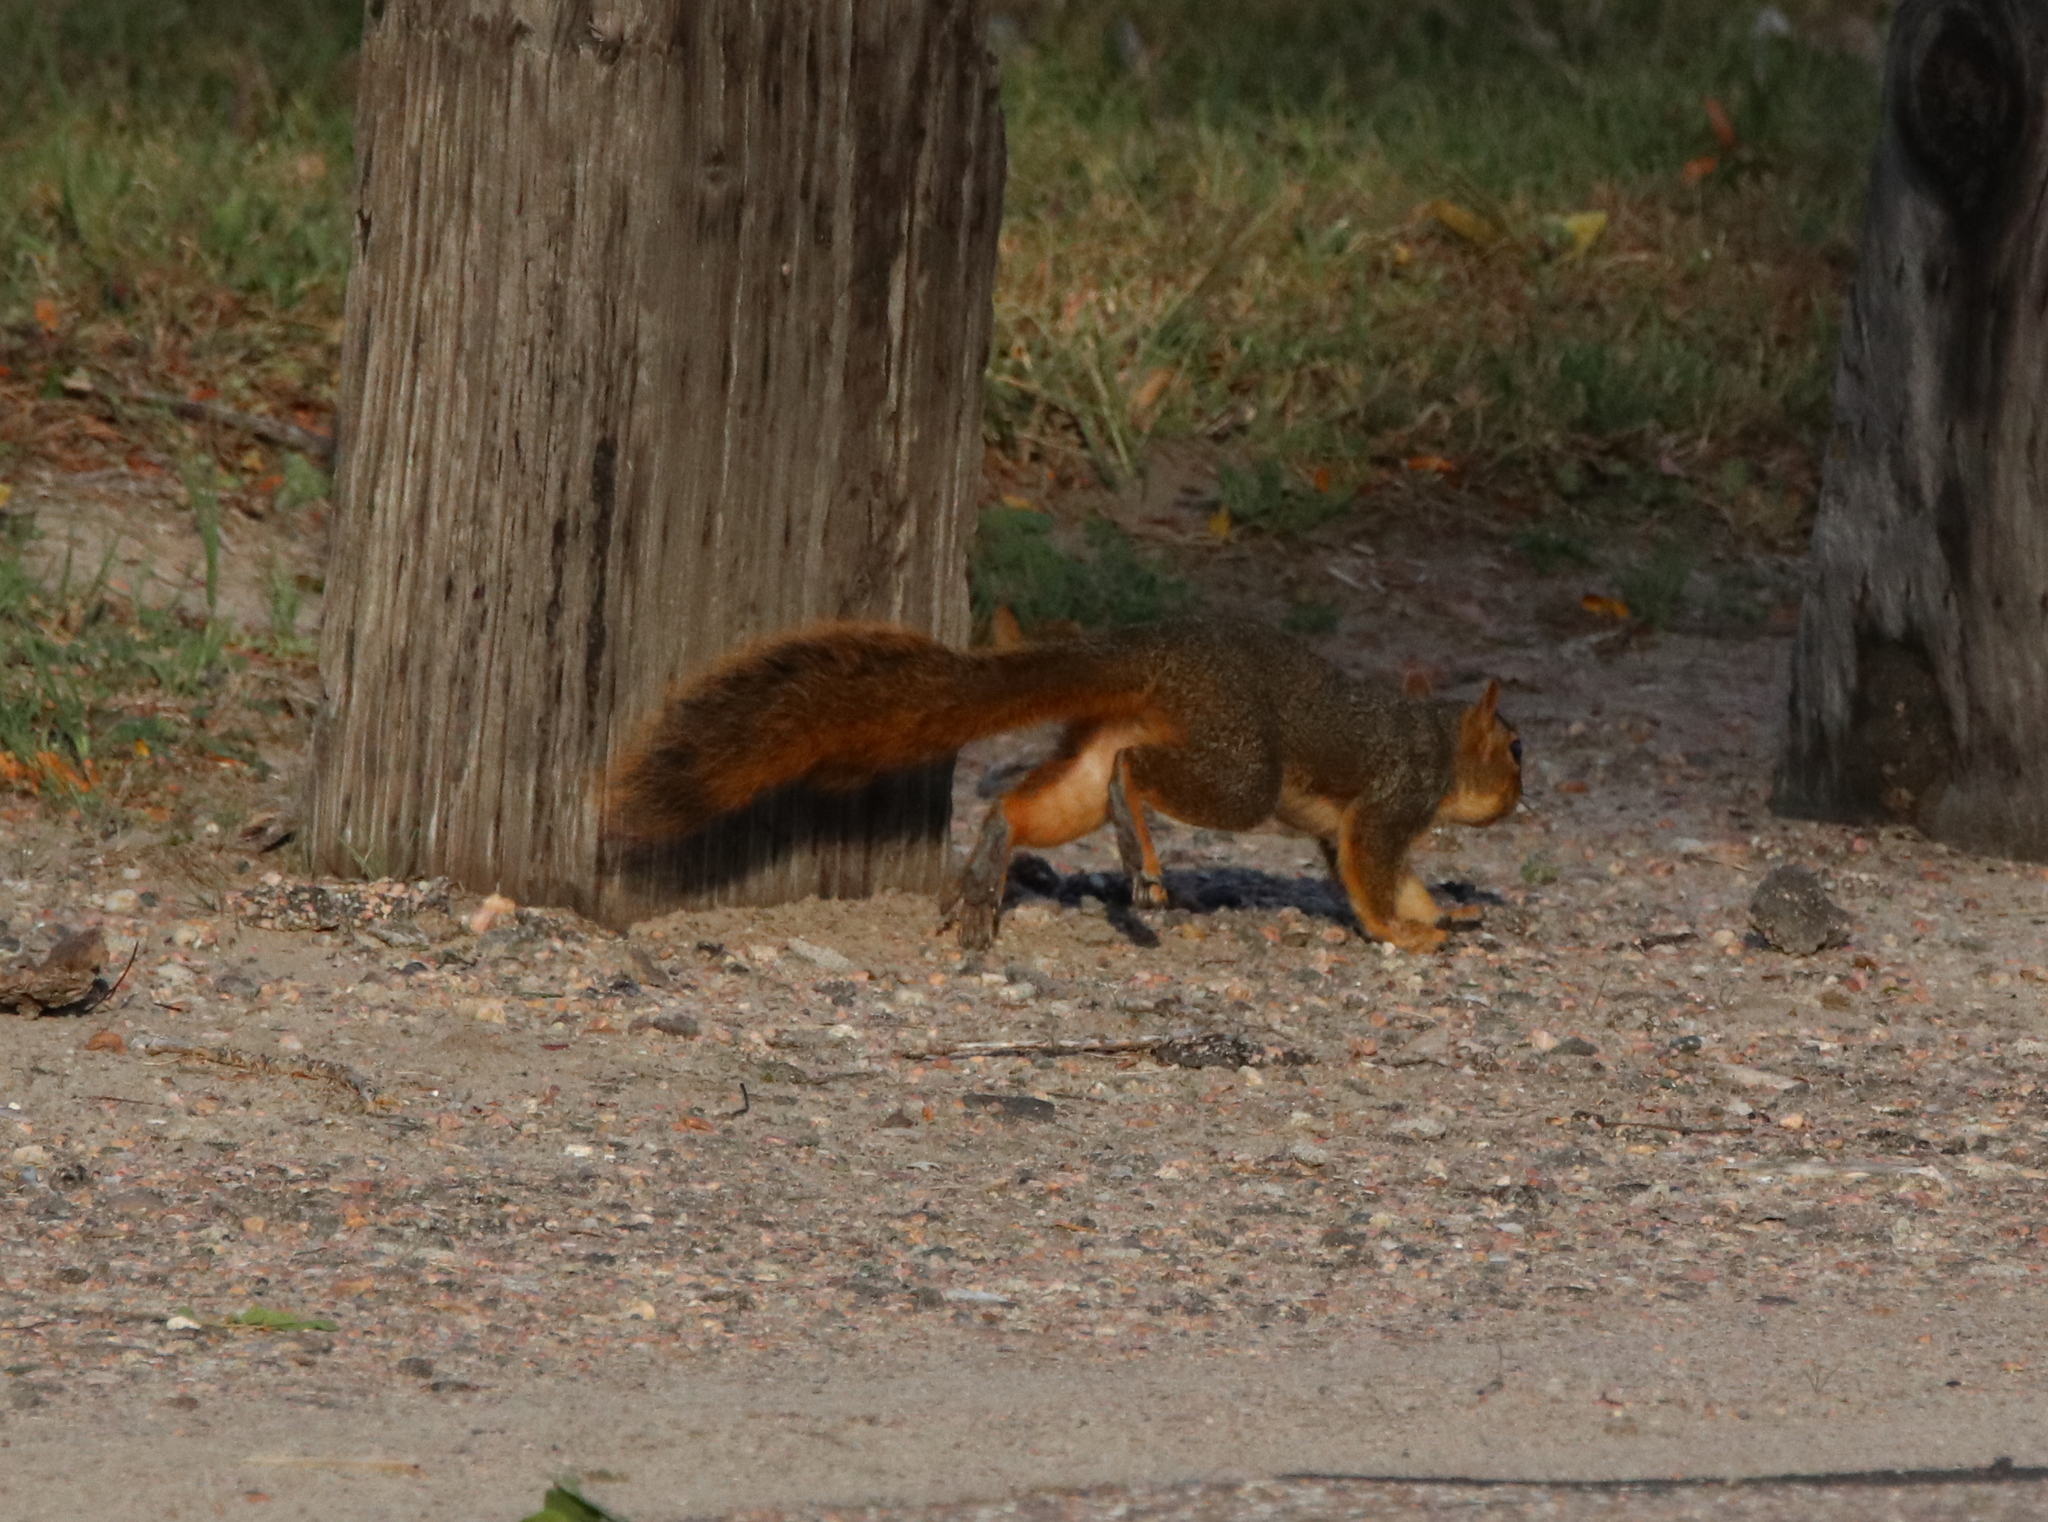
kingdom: Animalia
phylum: Chordata
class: Mammalia
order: Rodentia
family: Sciuridae
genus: Sciurus
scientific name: Sciurus niger
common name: Fox squirrel
